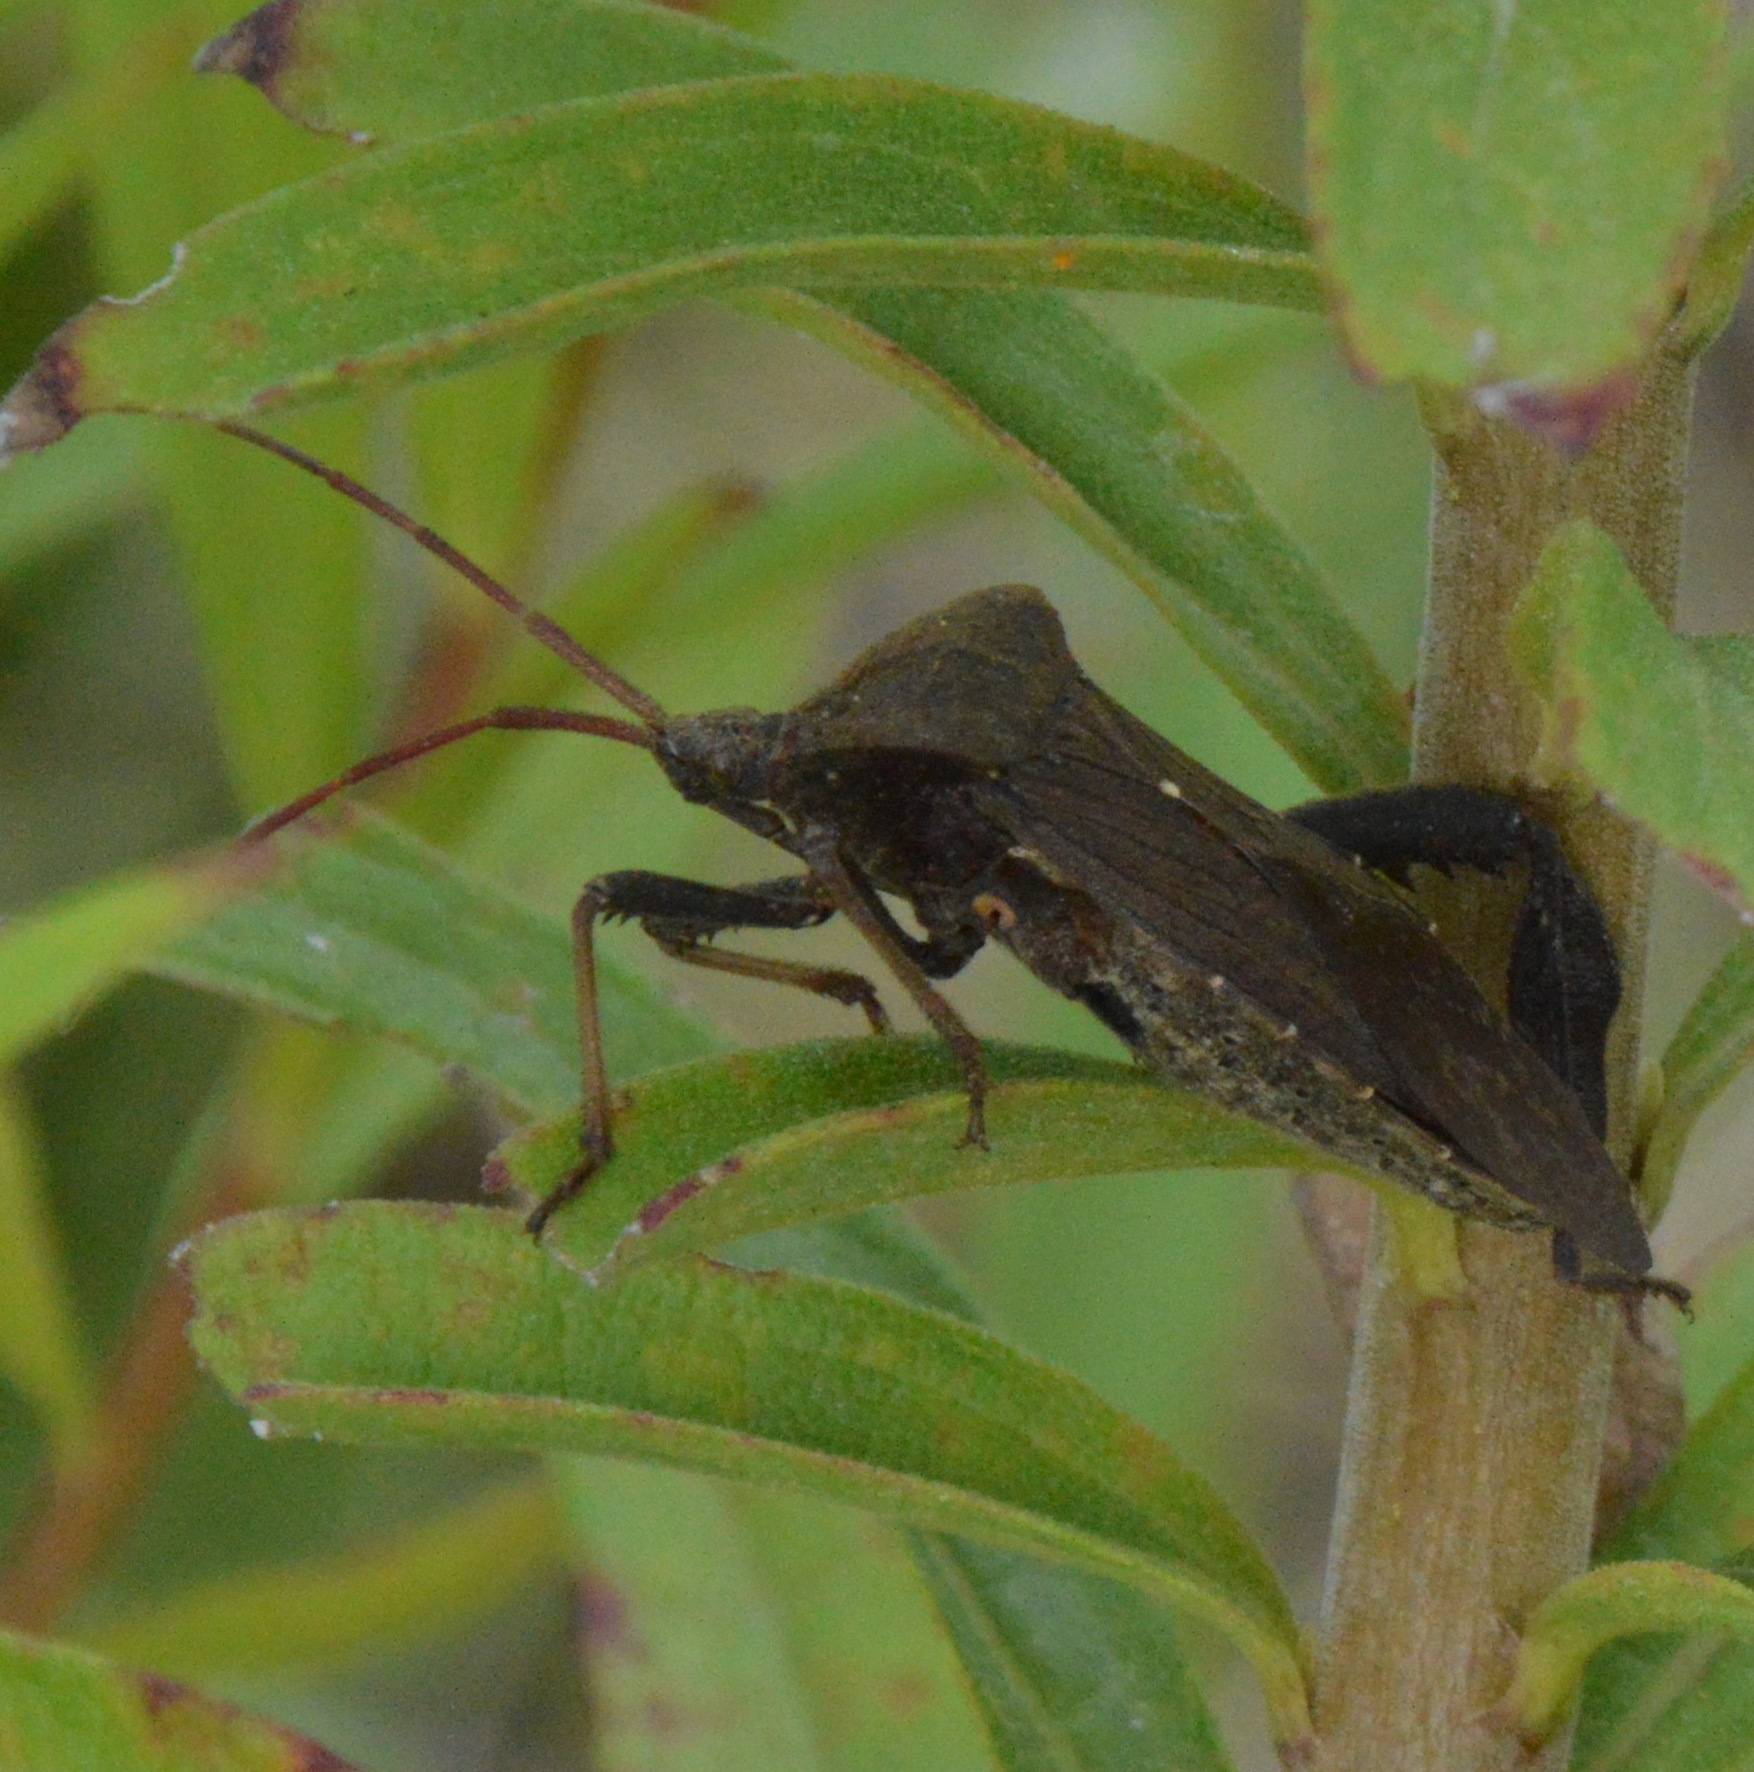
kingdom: Animalia
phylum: Arthropoda
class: Insecta
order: Hemiptera
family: Coreidae
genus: Acanthocephala
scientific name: Acanthocephala femorata
